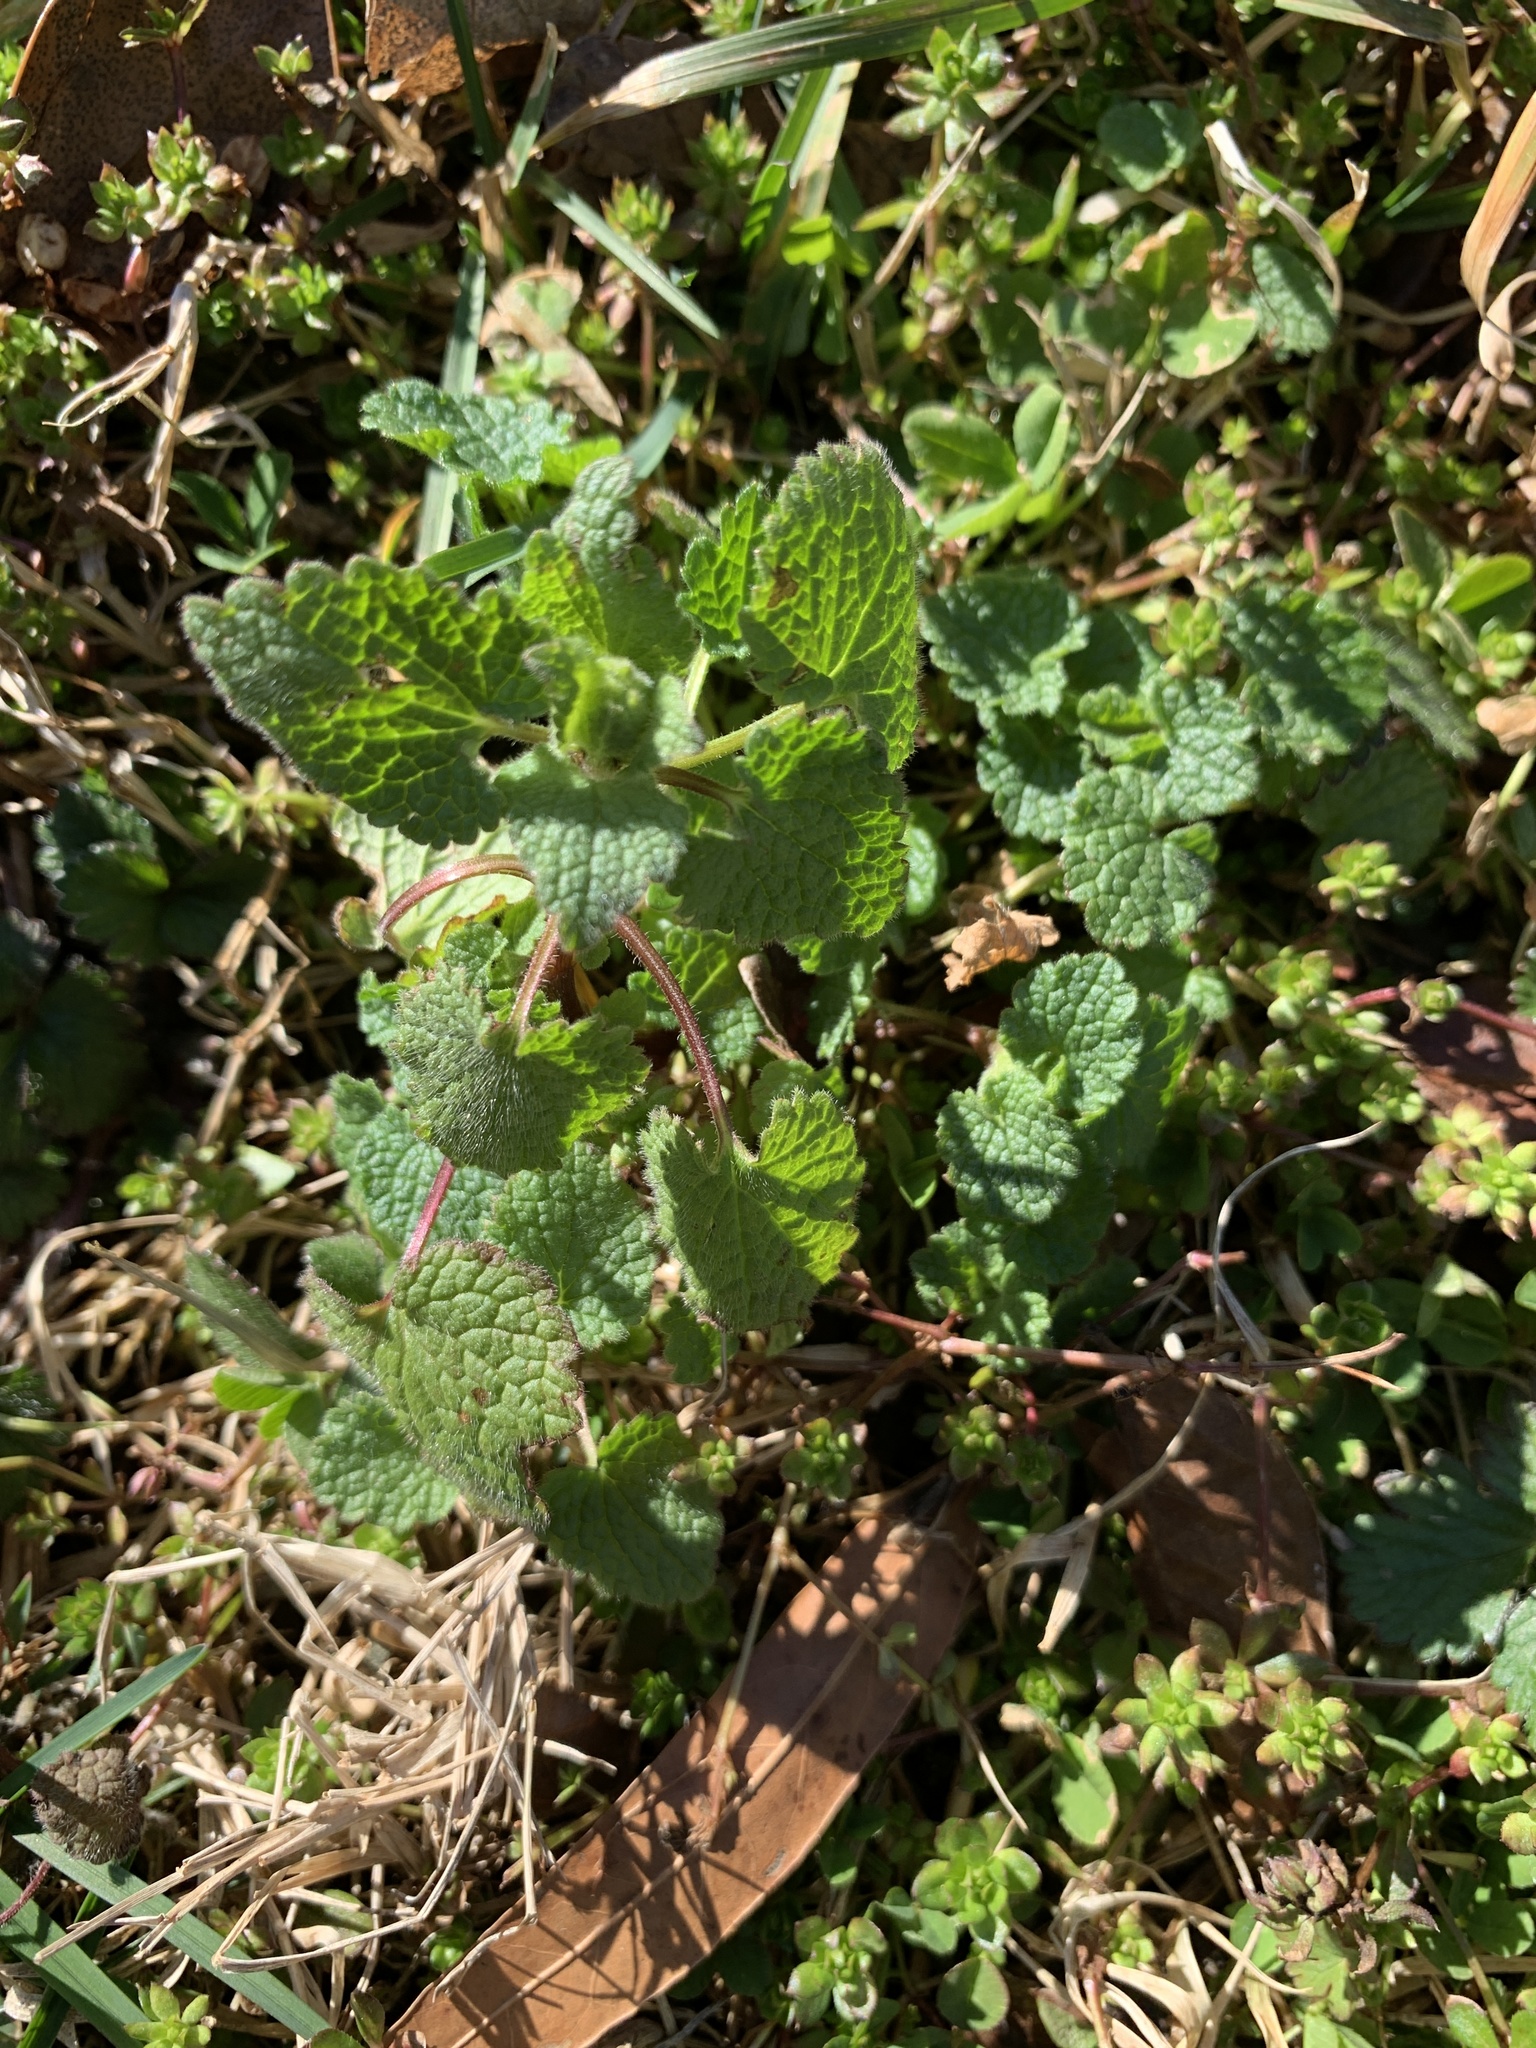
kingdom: Plantae
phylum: Tracheophyta
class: Magnoliopsida
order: Lamiales
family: Lamiaceae
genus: Lamium
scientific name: Lamium purpureum
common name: Red dead-nettle
